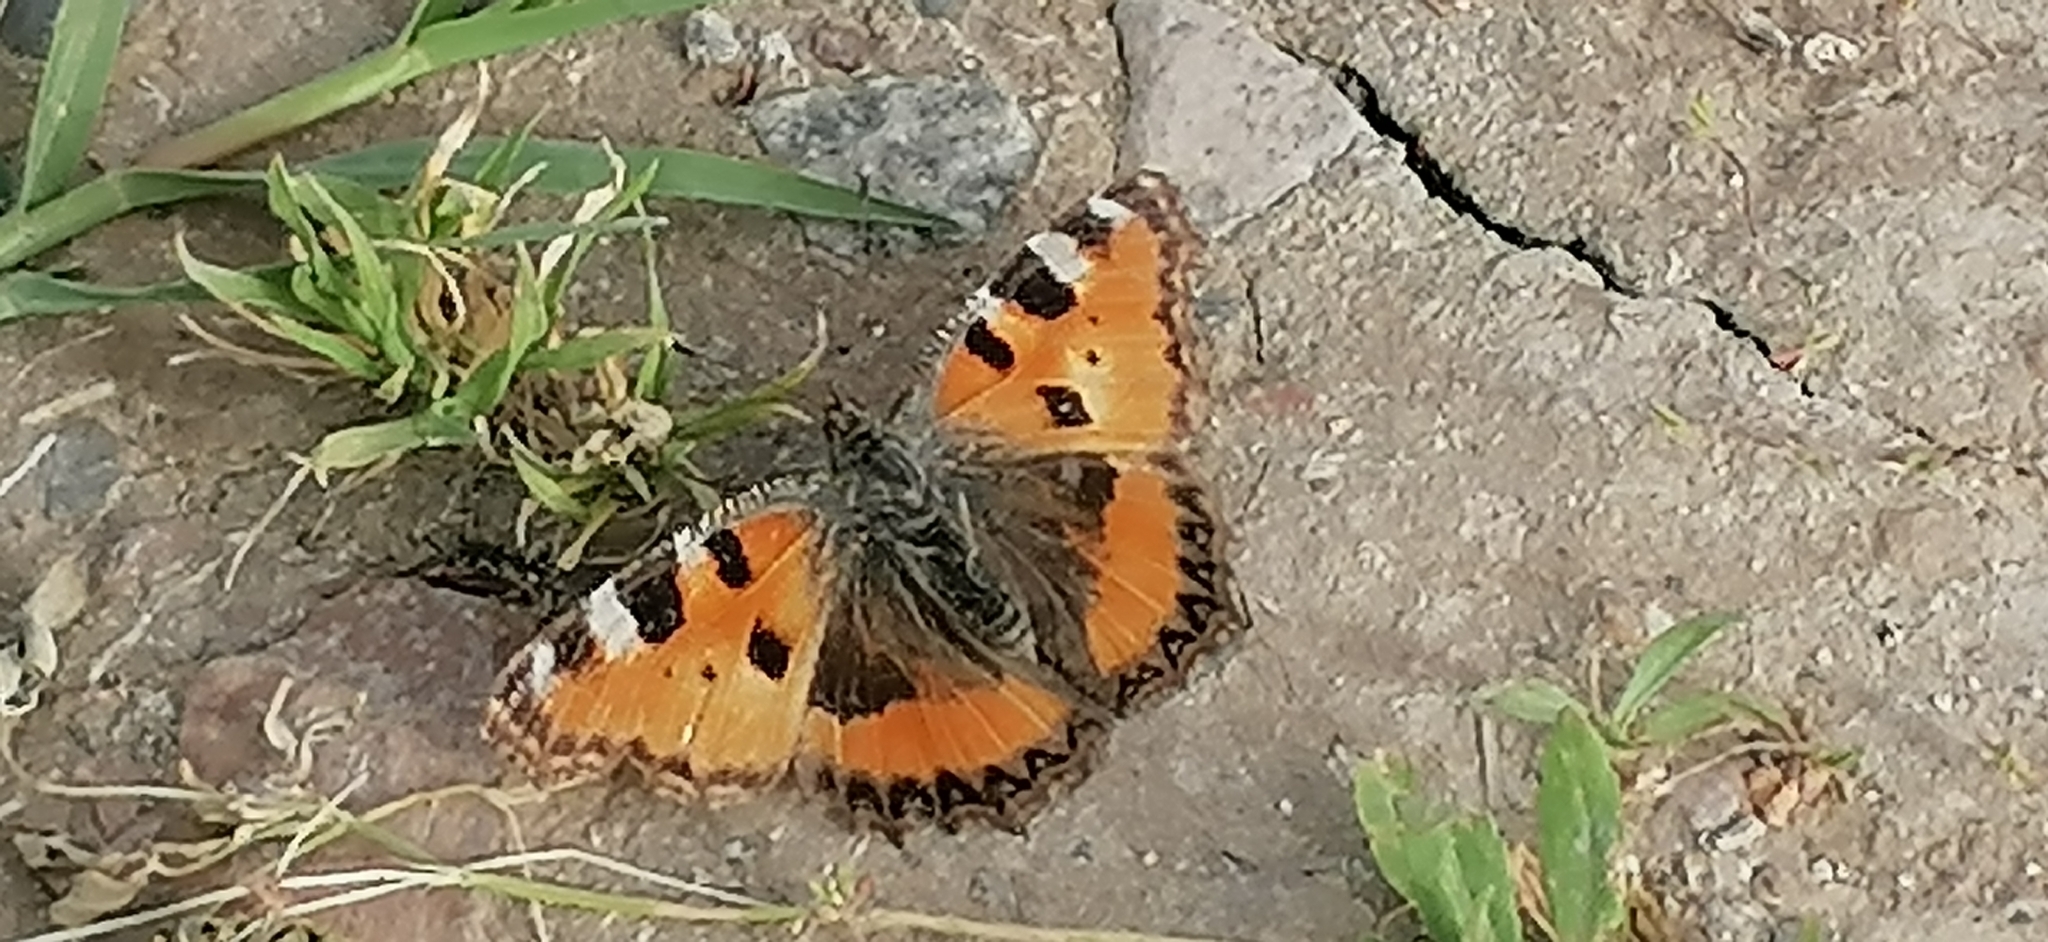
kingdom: Animalia
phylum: Arthropoda
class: Insecta
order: Lepidoptera
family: Nymphalidae
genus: Aglais
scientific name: Aglais urticae
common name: Small tortoiseshell
